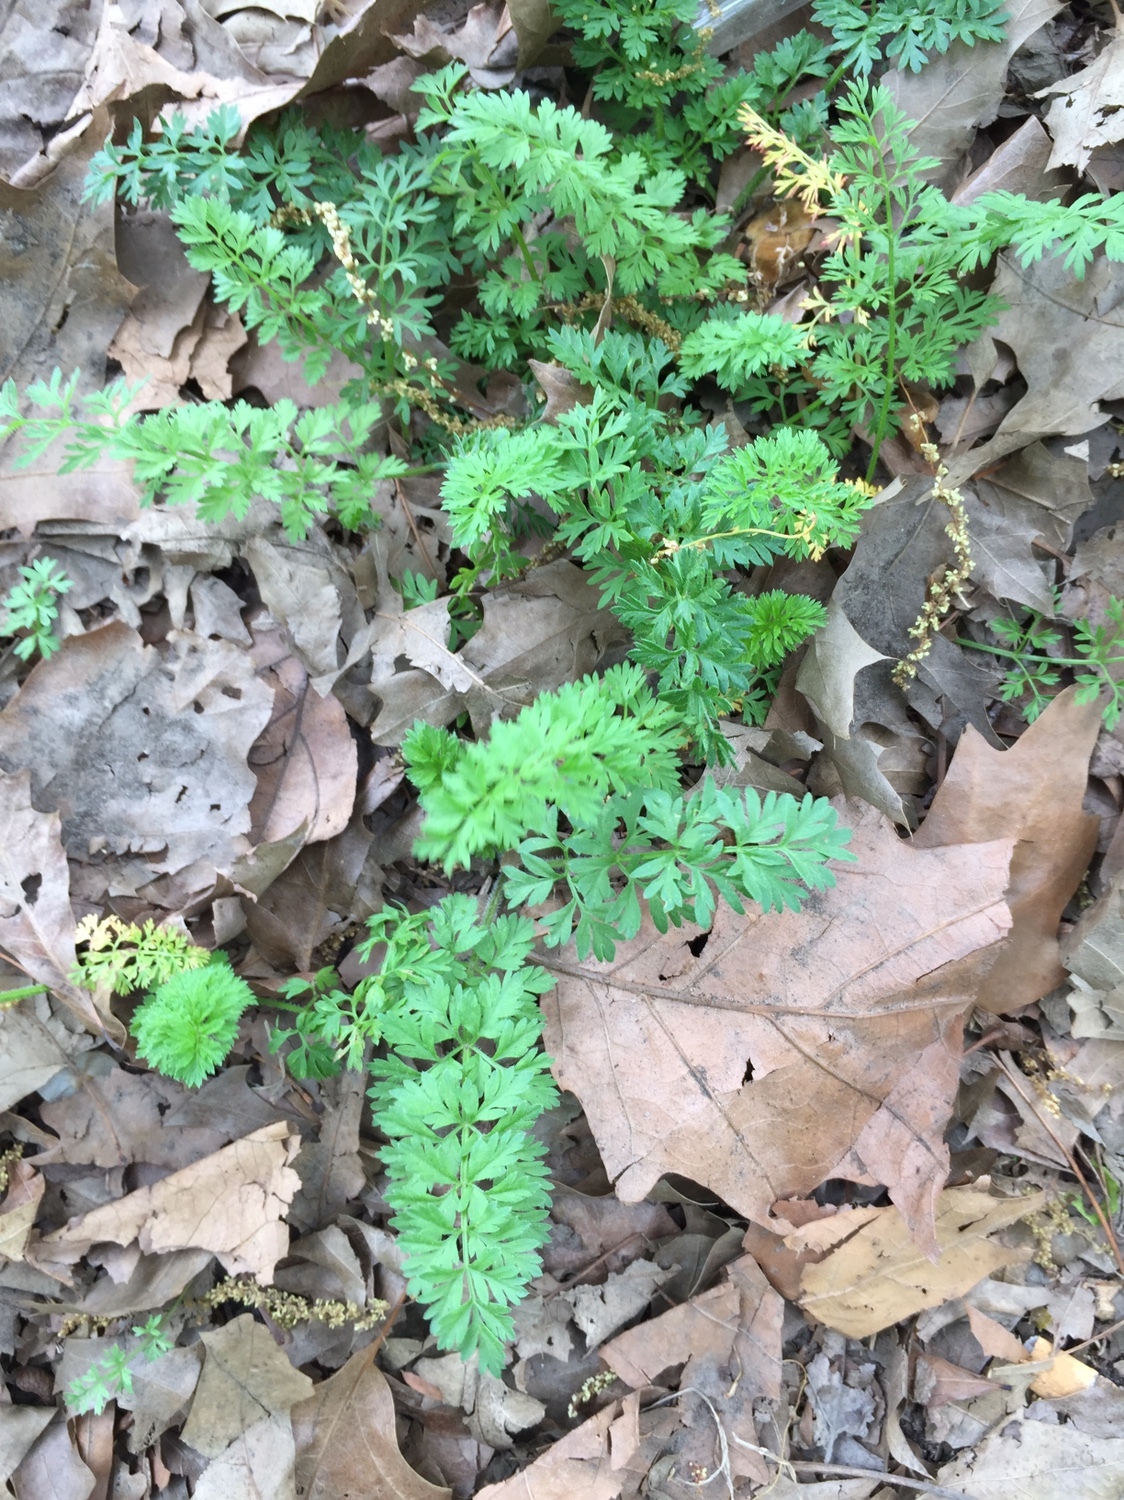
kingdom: Plantae
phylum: Tracheophyta
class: Magnoliopsida
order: Apiales
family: Apiaceae
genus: Daucus
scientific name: Daucus carota
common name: Wild carrot
